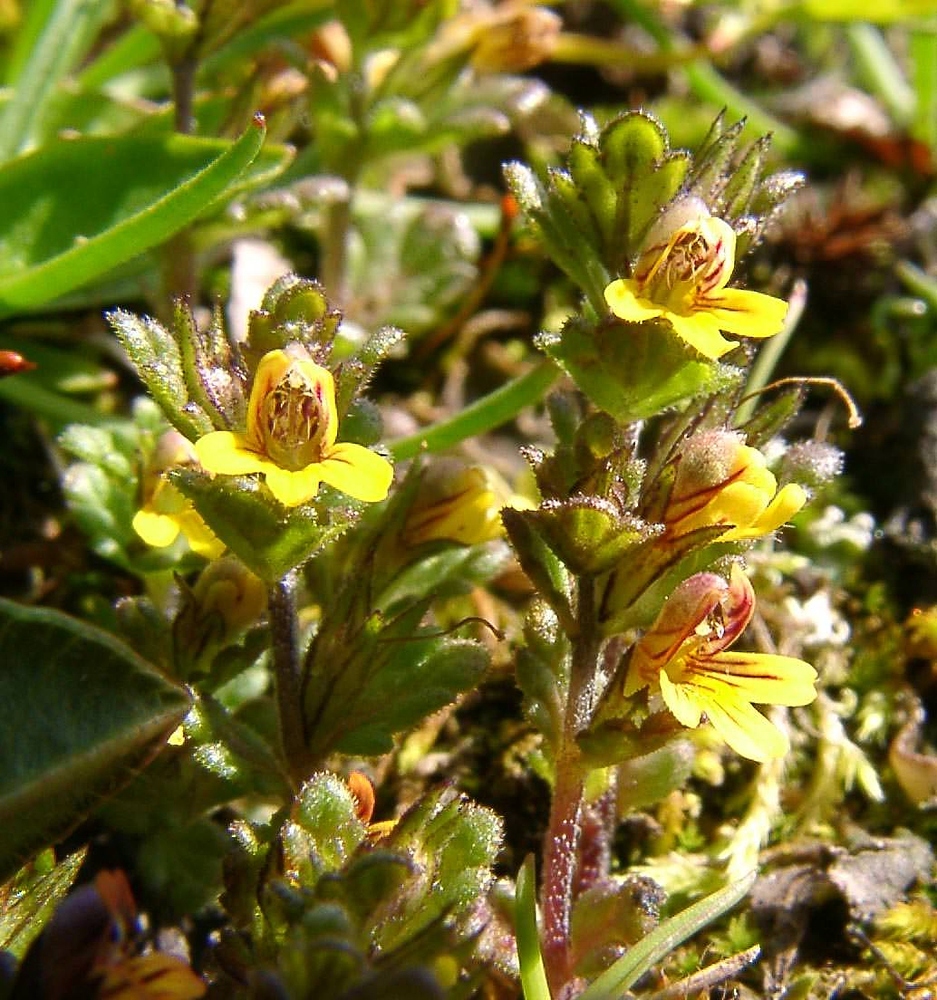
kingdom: Plantae
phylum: Tracheophyta
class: Magnoliopsida
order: Lamiales
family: Orobanchaceae
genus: Euphrasia
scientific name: Euphrasia minima
